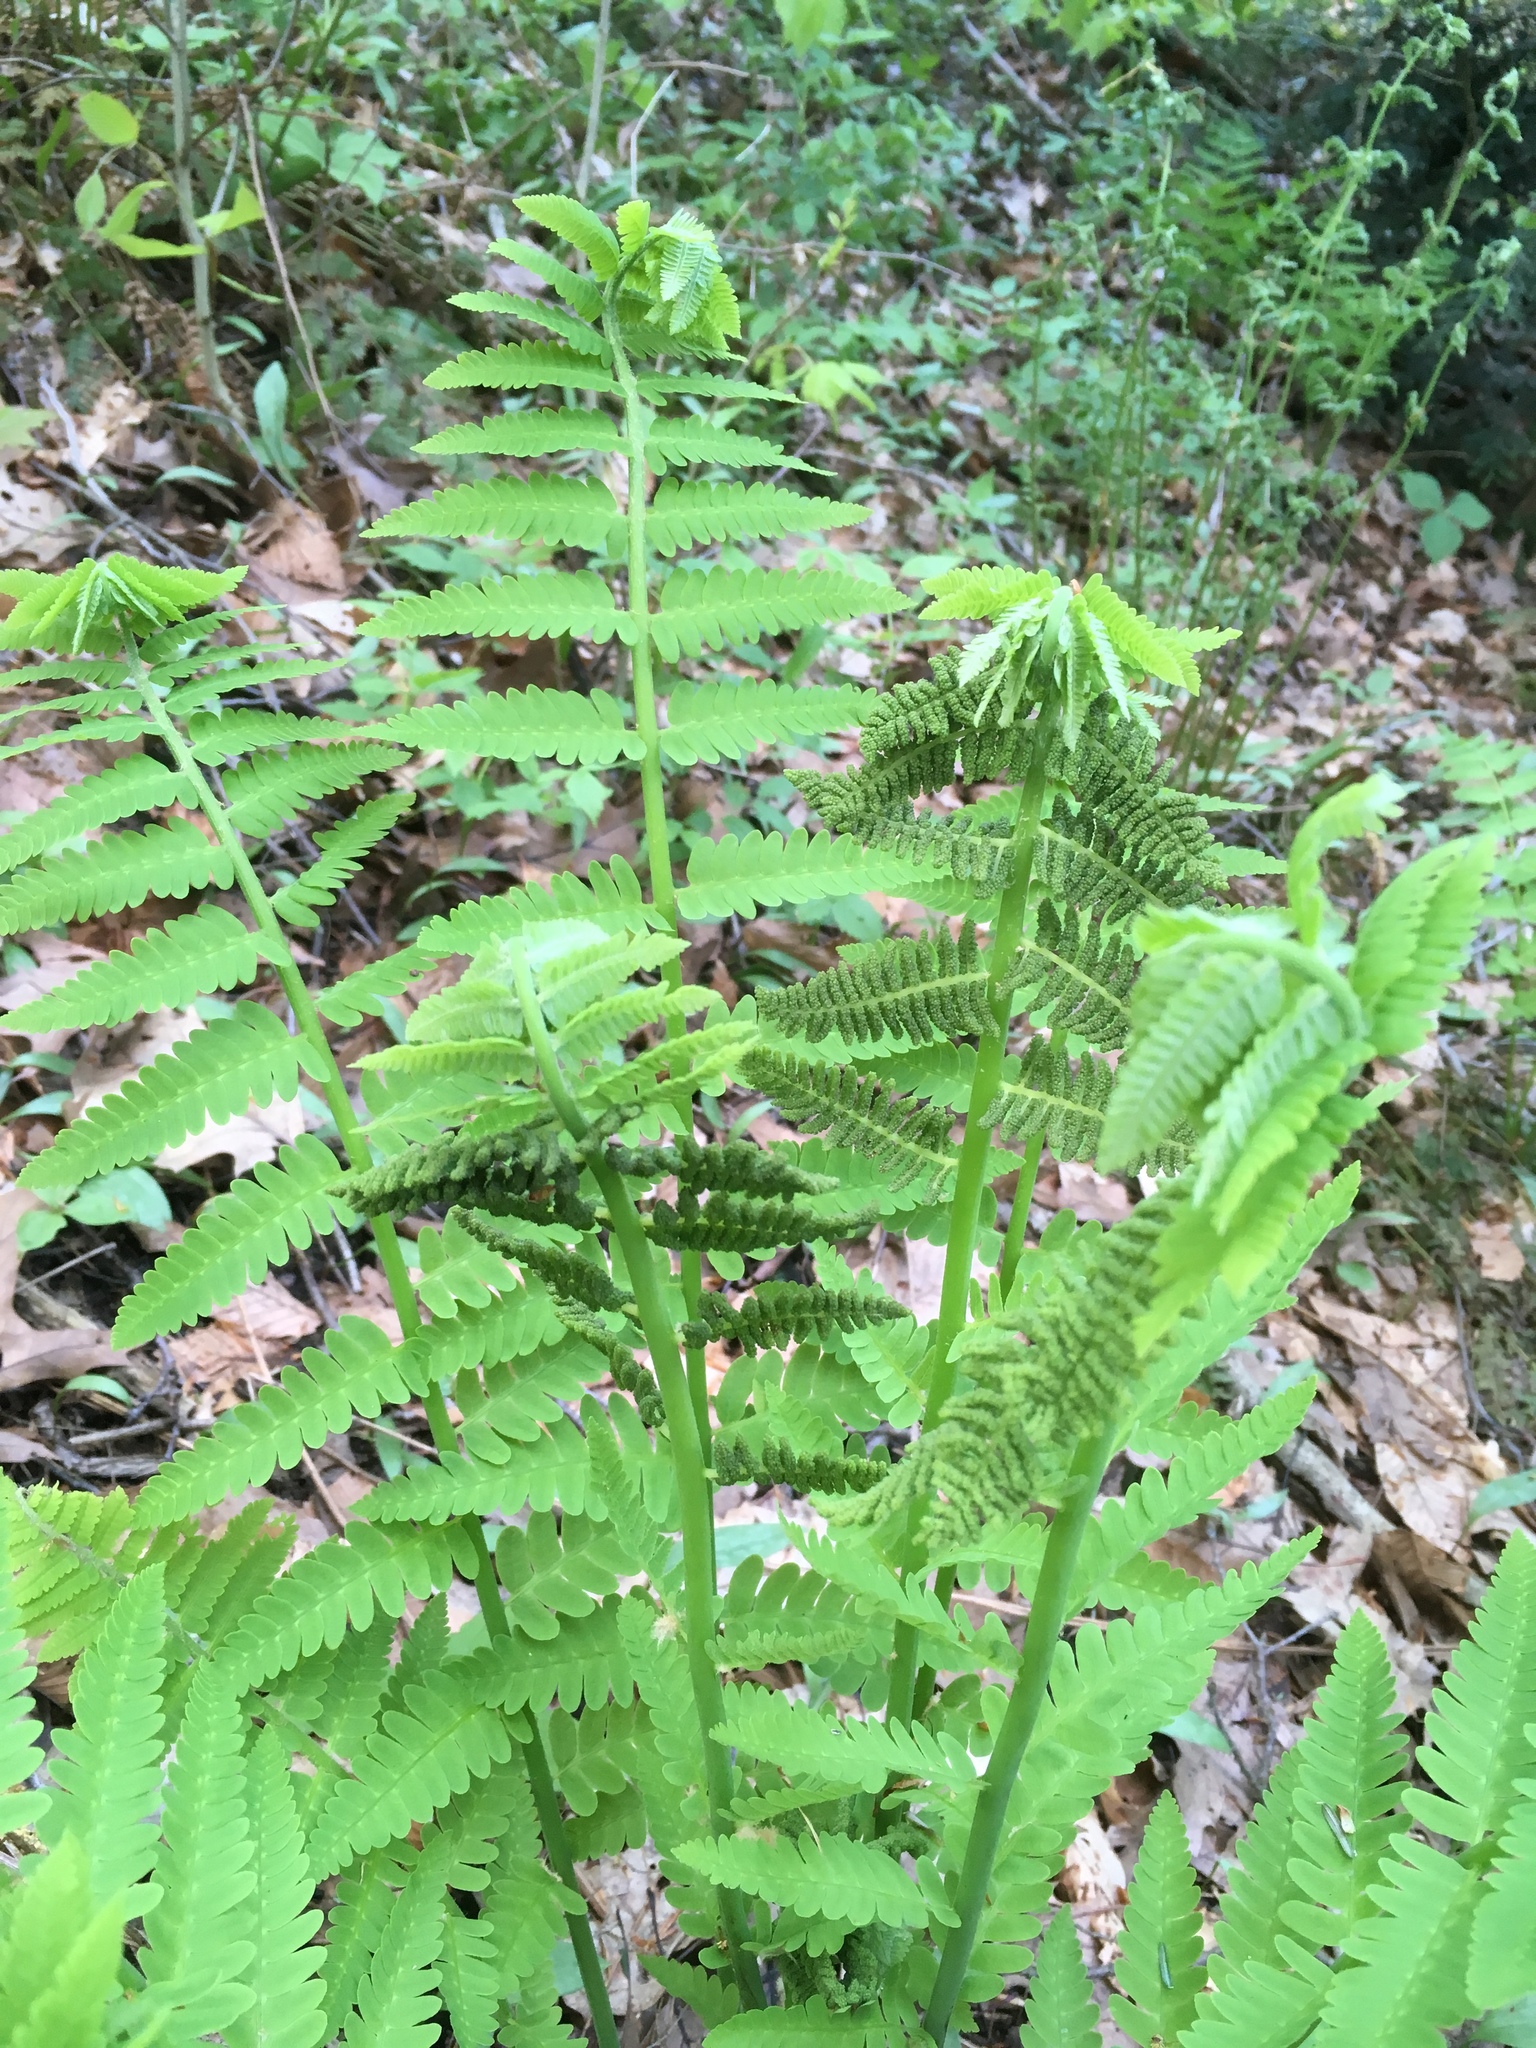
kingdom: Plantae
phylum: Tracheophyta
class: Polypodiopsida
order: Osmundales
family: Osmundaceae
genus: Claytosmunda
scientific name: Claytosmunda claytoniana
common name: Clayton's fern
